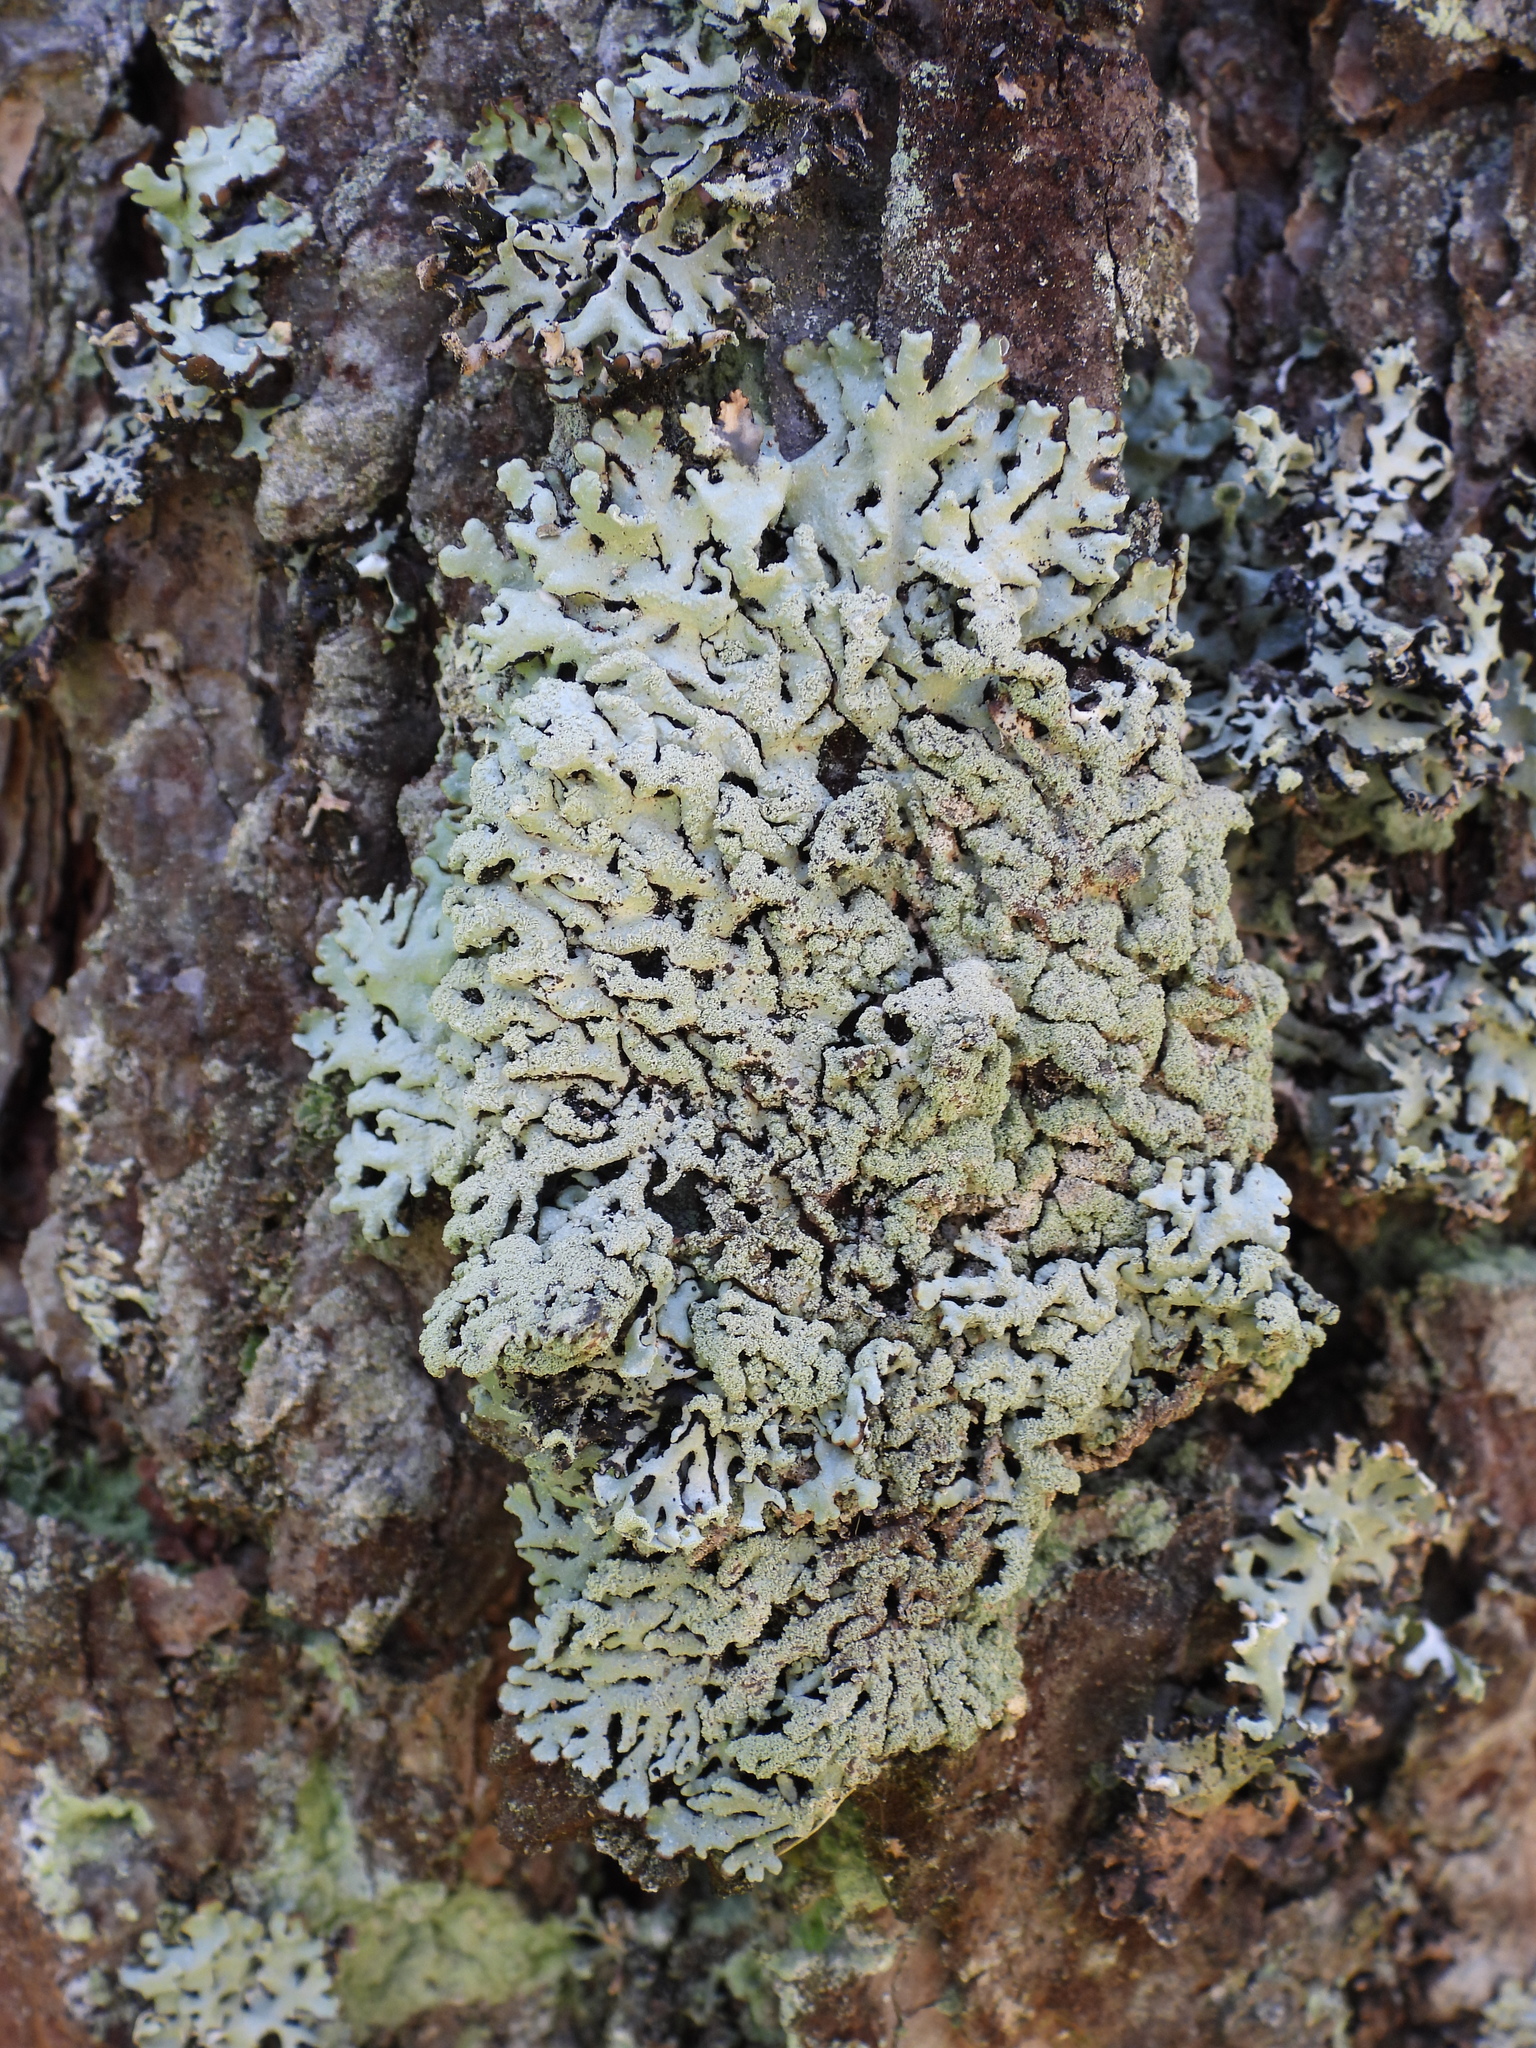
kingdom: Fungi
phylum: Ascomycota
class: Lecanoromycetes
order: Lecanorales
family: Parmeliaceae
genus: Hypogymnia
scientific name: Hypogymnia farinacea
